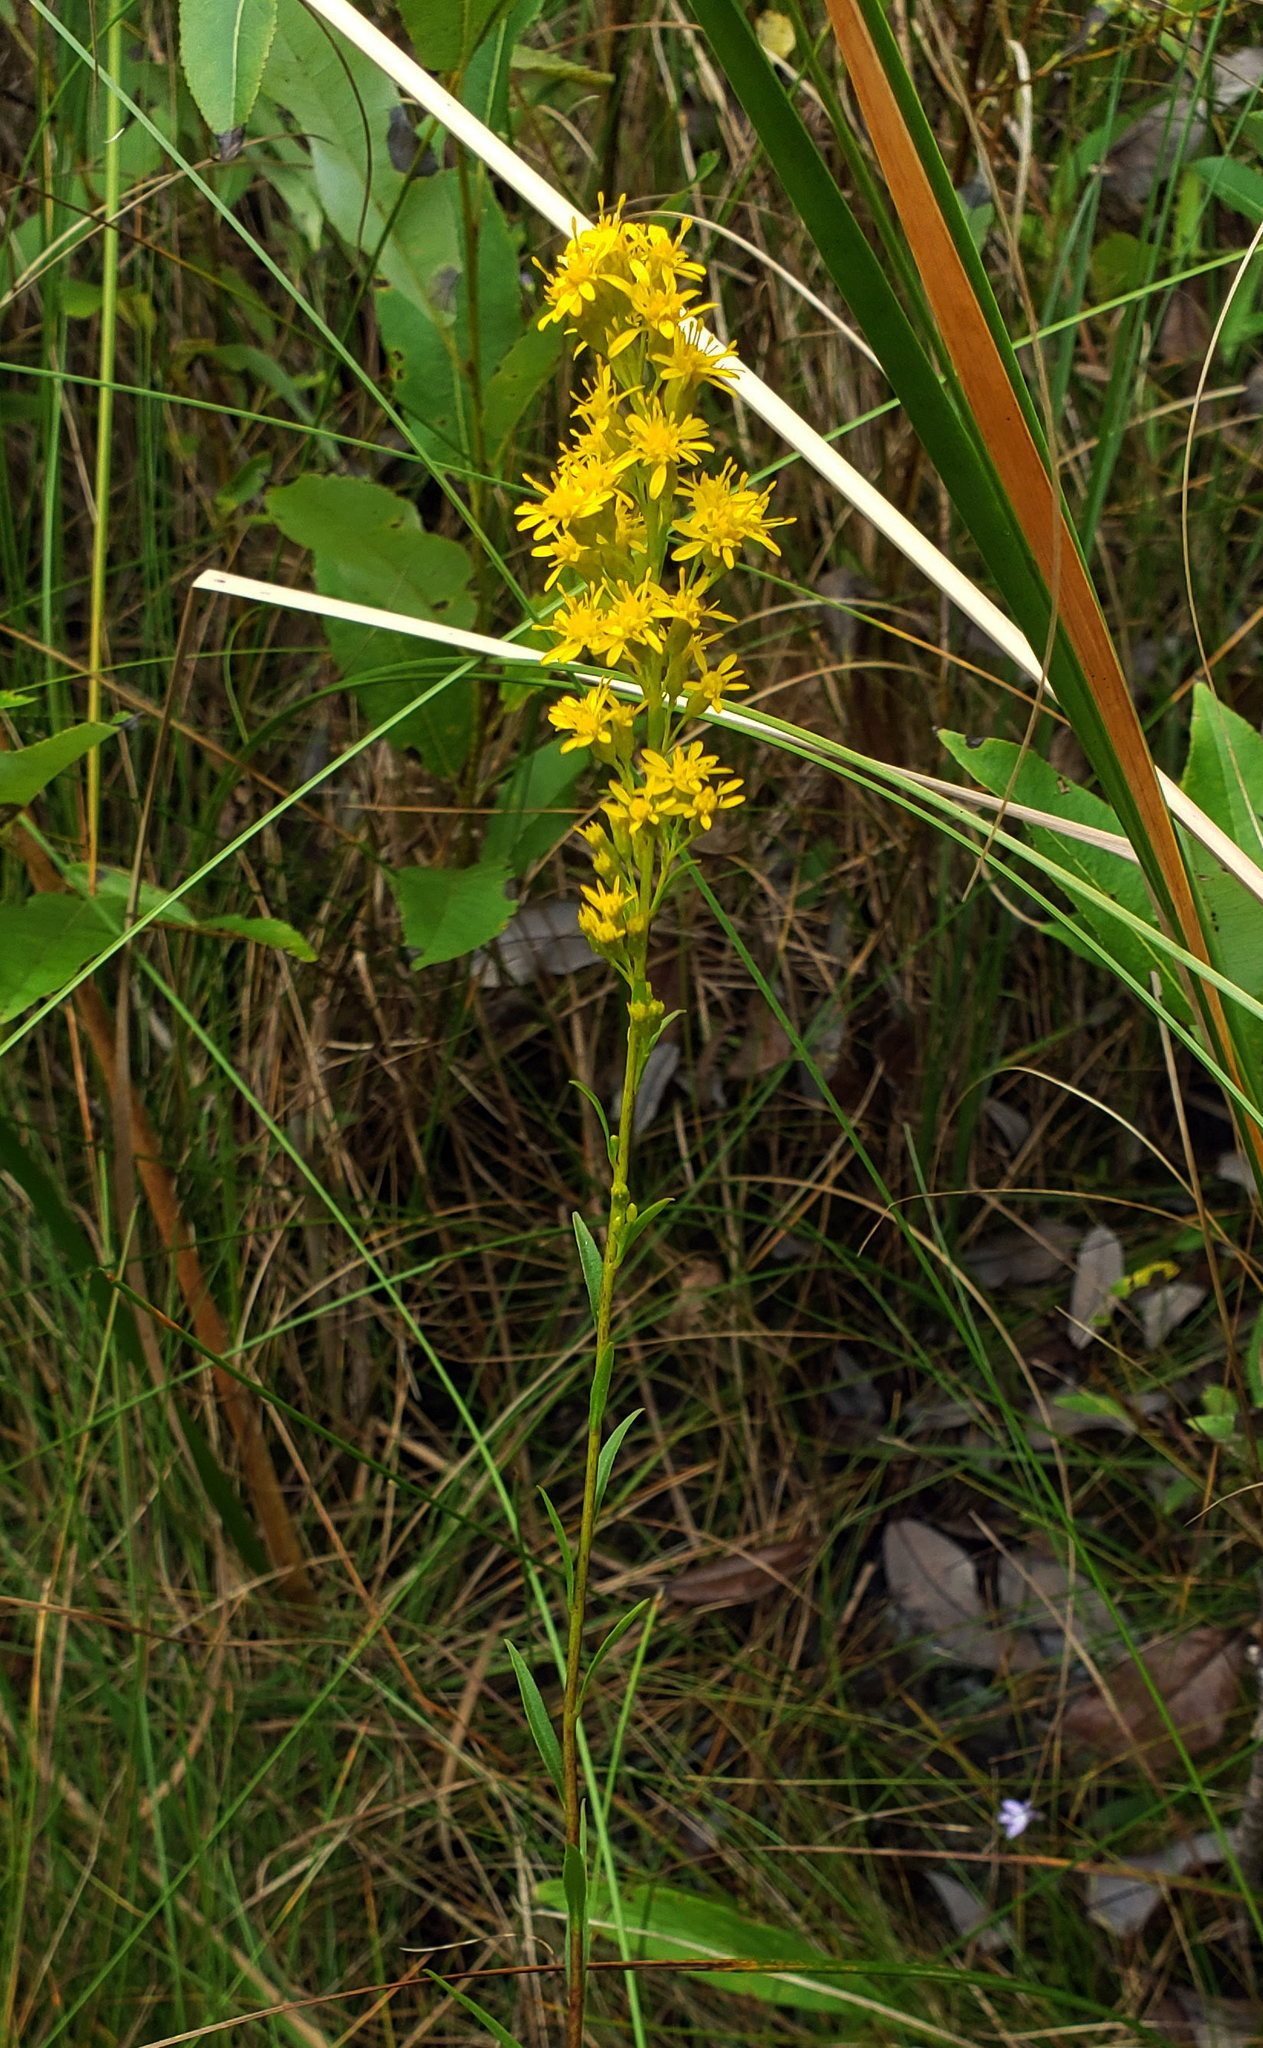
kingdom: Plantae
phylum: Tracheophyta
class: Magnoliopsida
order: Asterales
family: Asteraceae
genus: Solidago
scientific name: Solidago uliginosa
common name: Bog goldenrod
